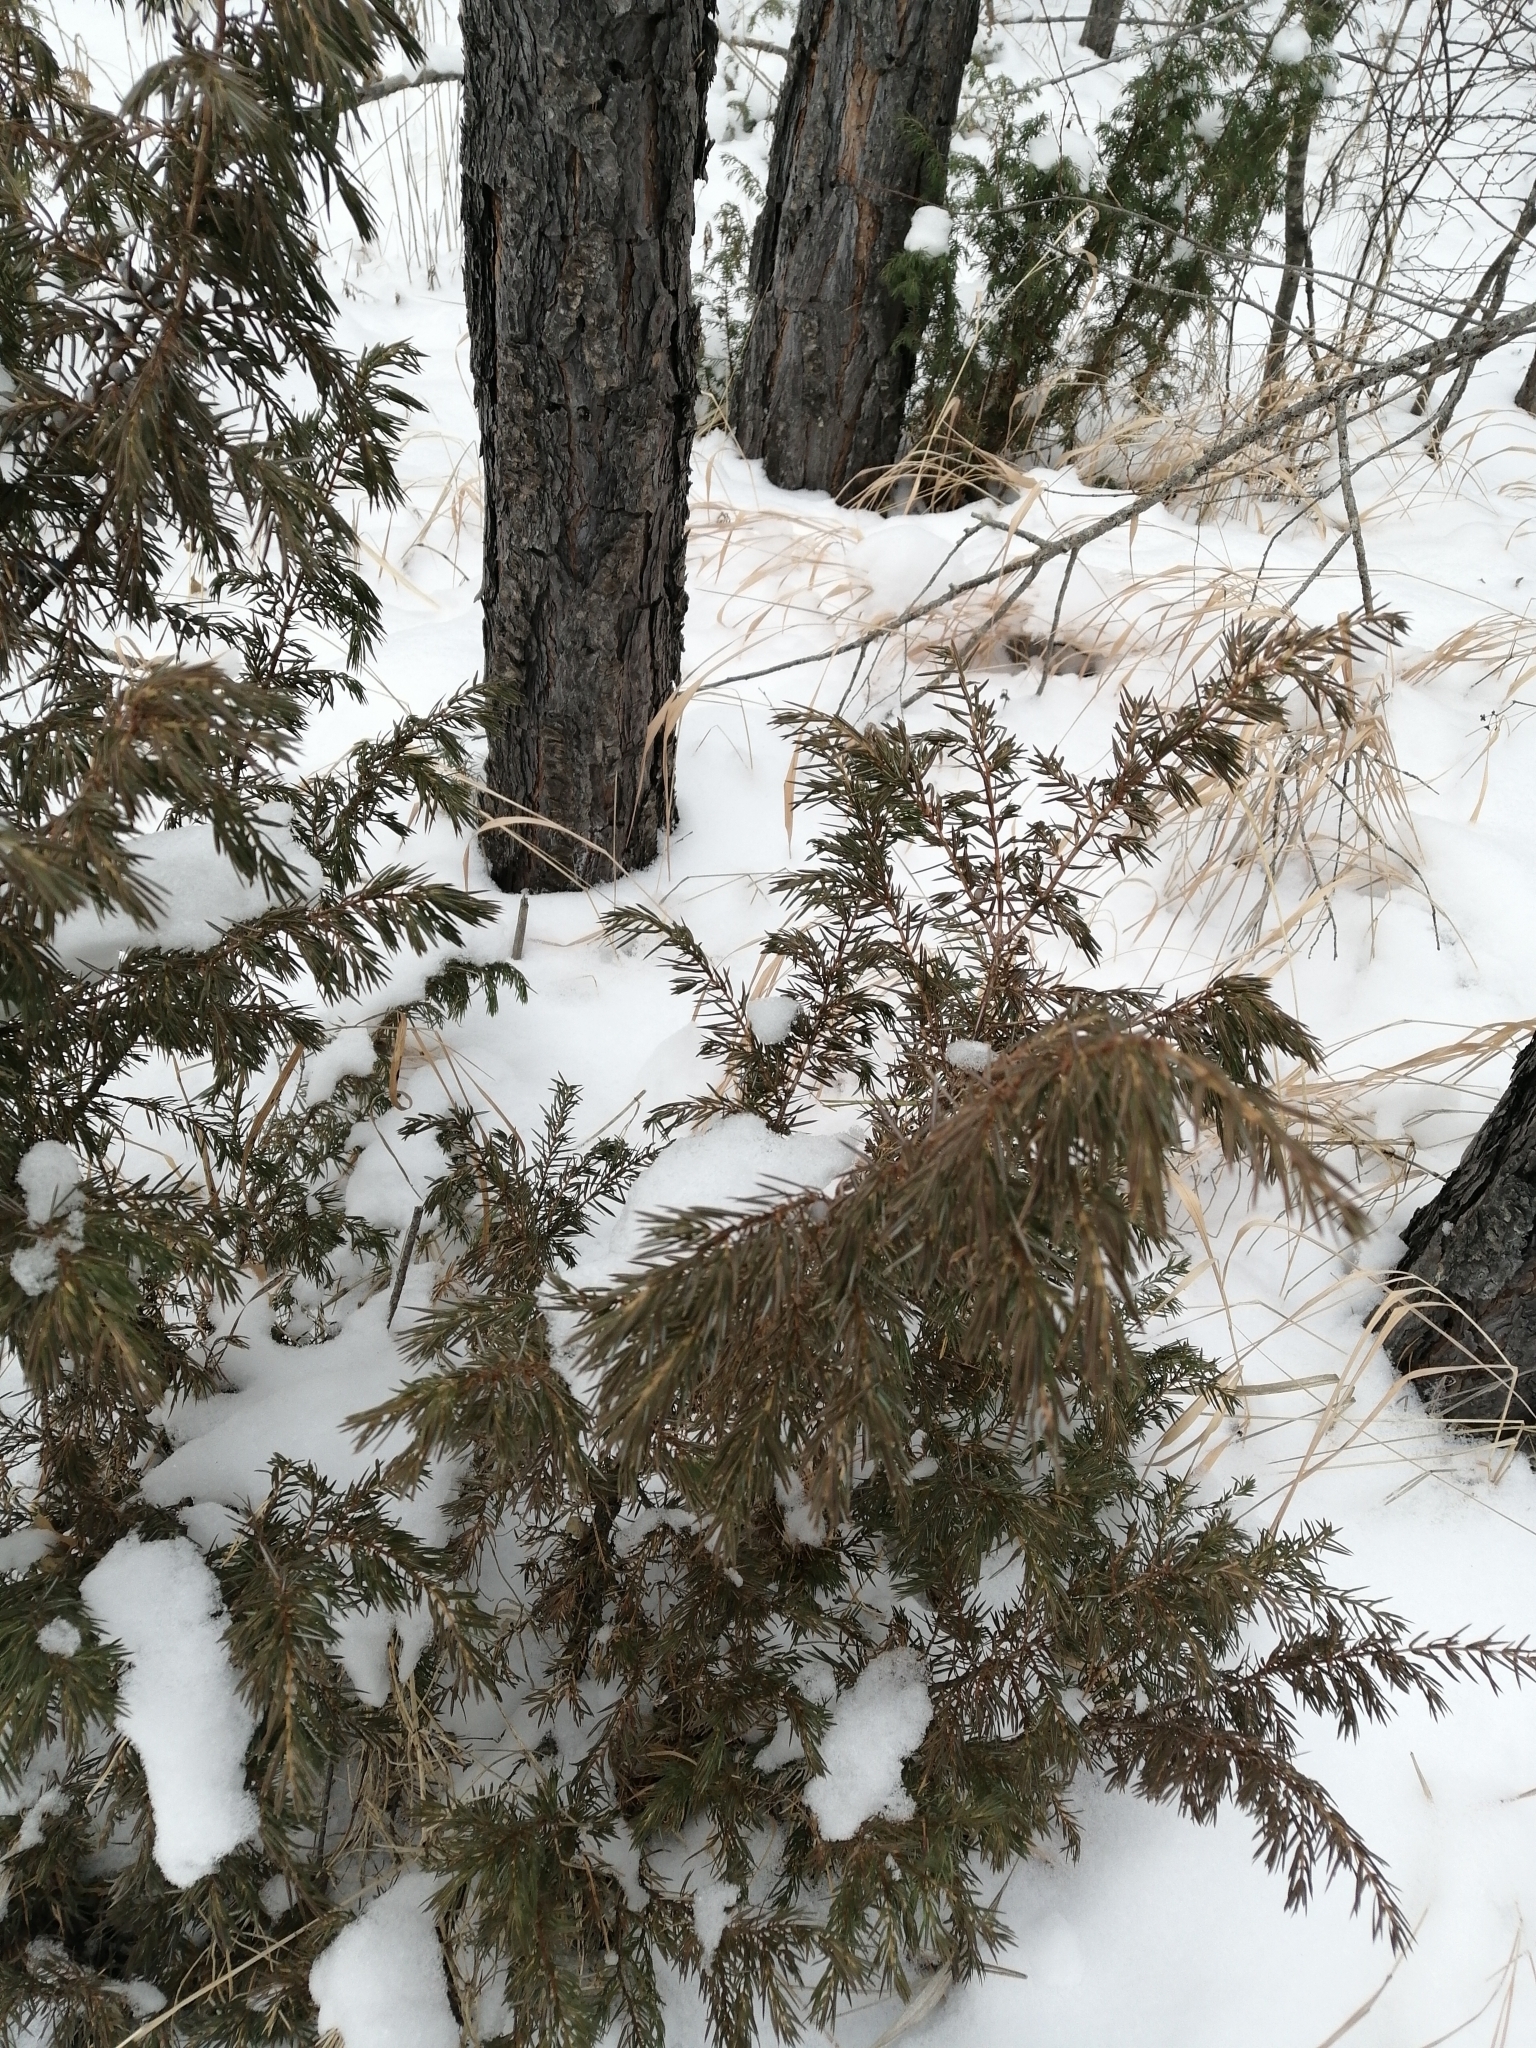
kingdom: Plantae
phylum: Tracheophyta
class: Pinopsida
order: Pinales
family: Cupressaceae
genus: Juniperus
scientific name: Juniperus communis
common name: Common juniper
